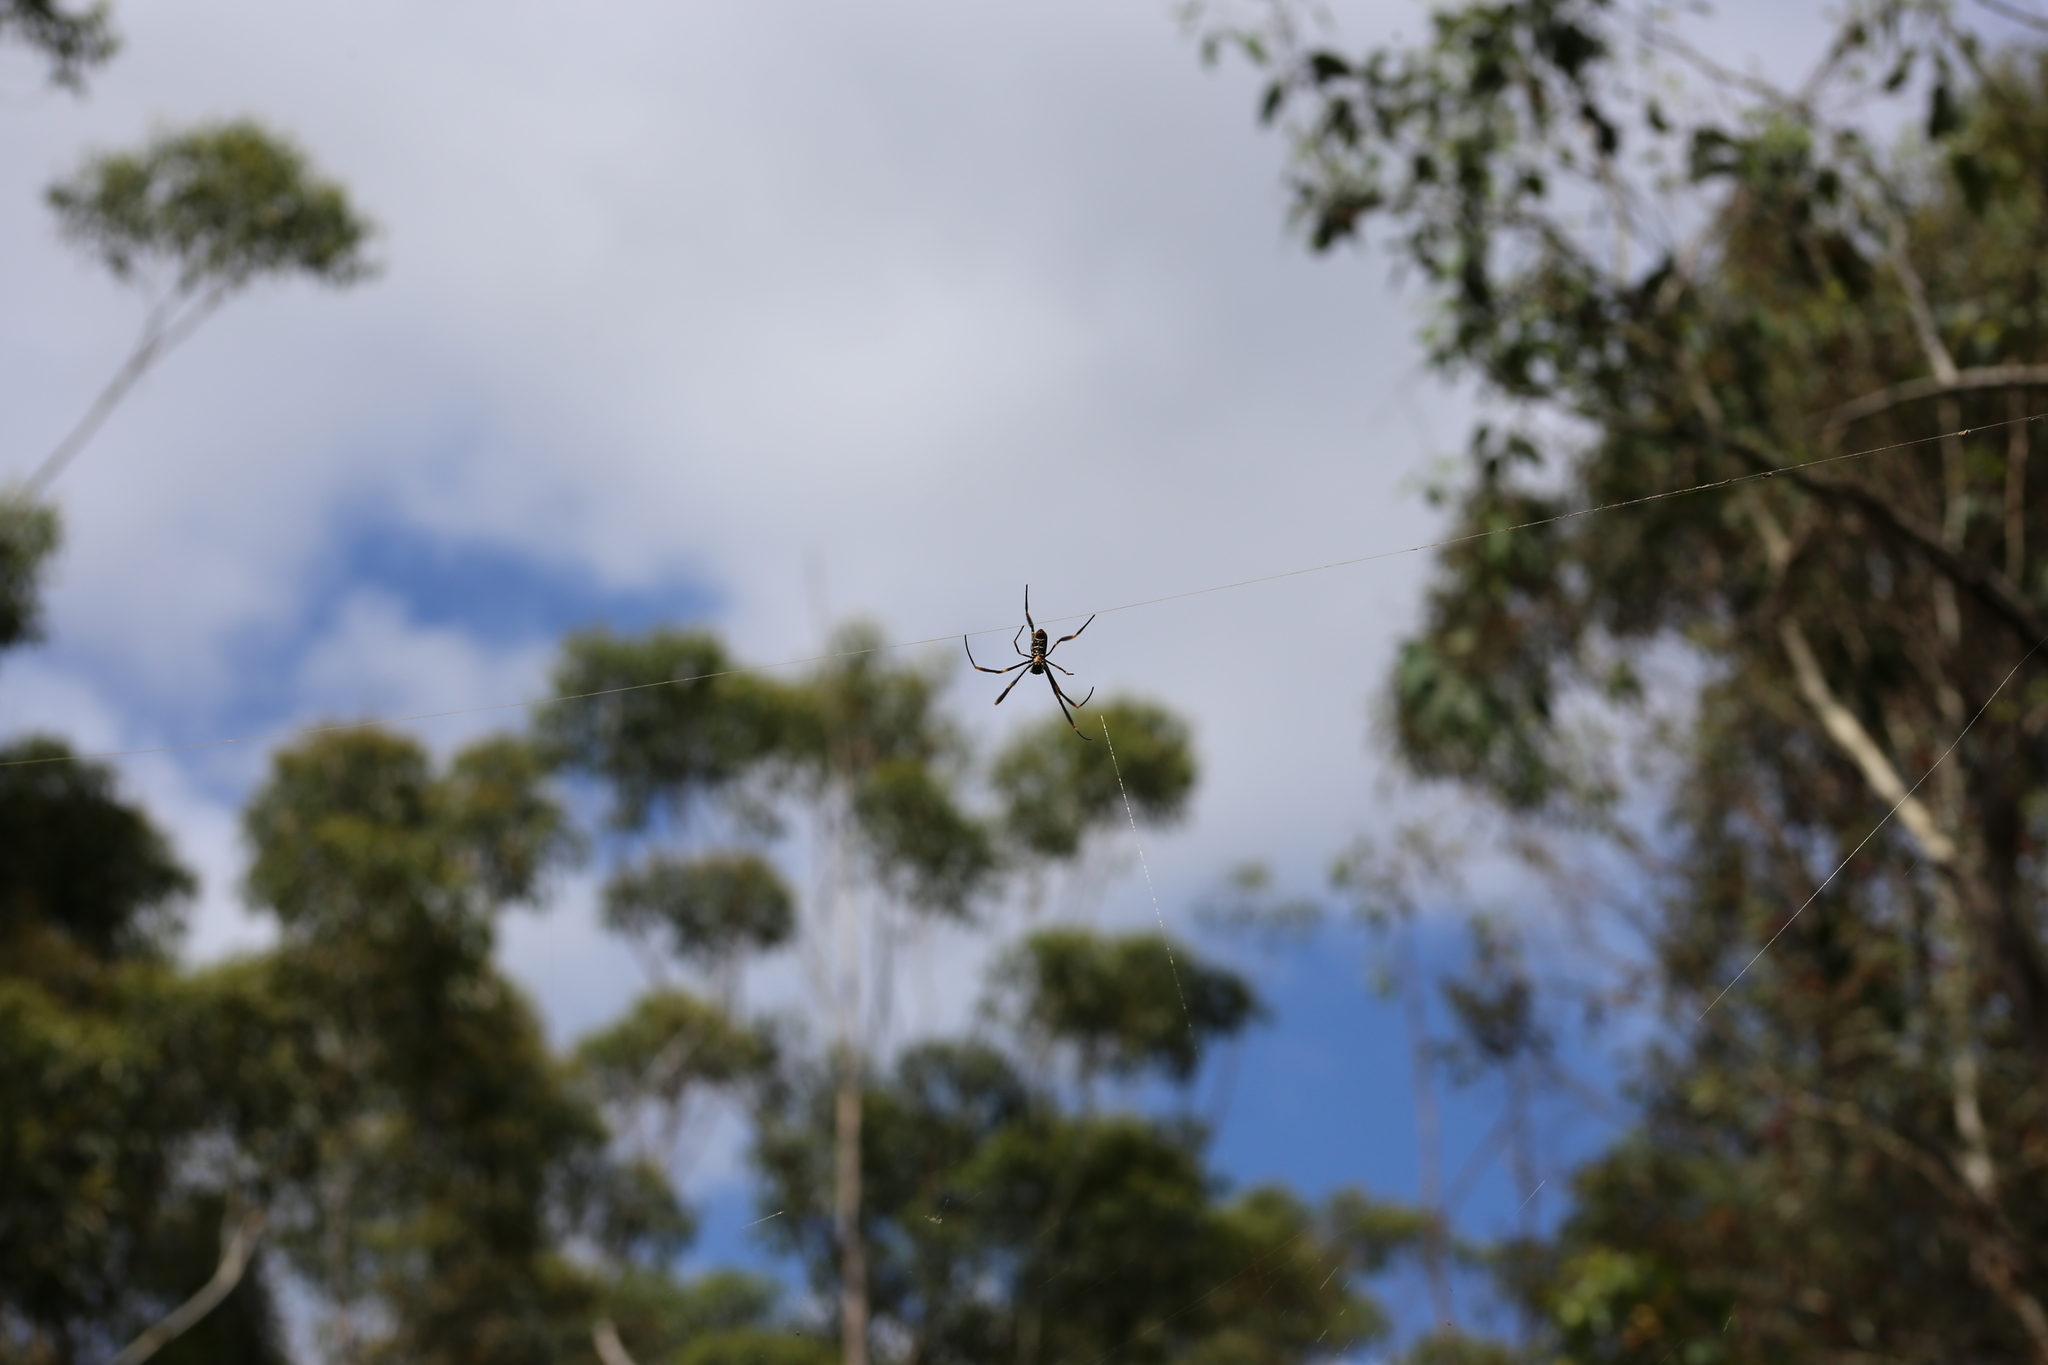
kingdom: Animalia
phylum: Arthropoda
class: Arachnida
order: Araneae
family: Araneidae
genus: Trichonephila
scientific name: Trichonephila plumipes
